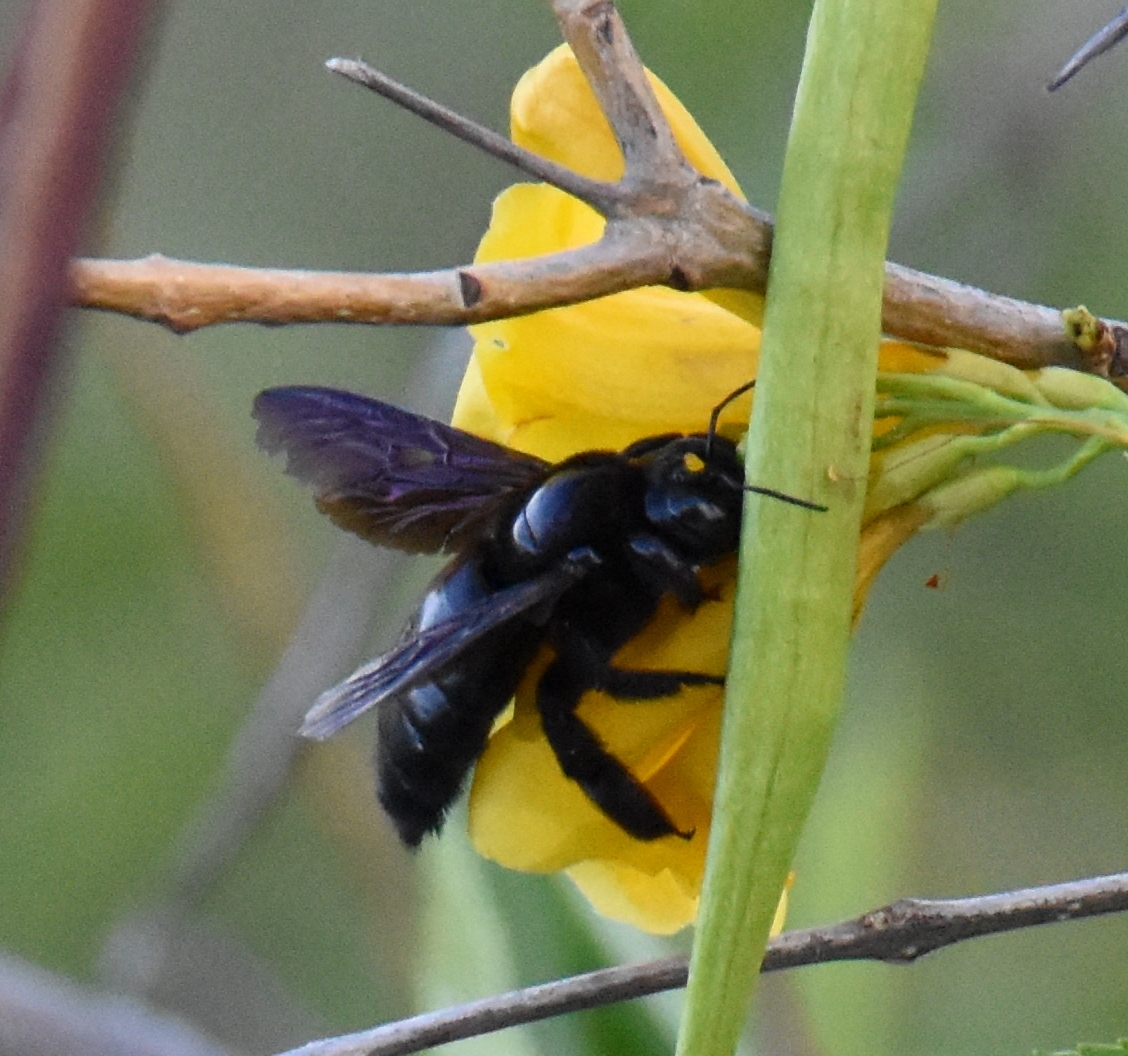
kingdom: Animalia
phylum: Arthropoda
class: Insecta
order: Hymenoptera
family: Apidae
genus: Xylocopa
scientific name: Xylocopa mordax
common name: Antillean carpenter bee
